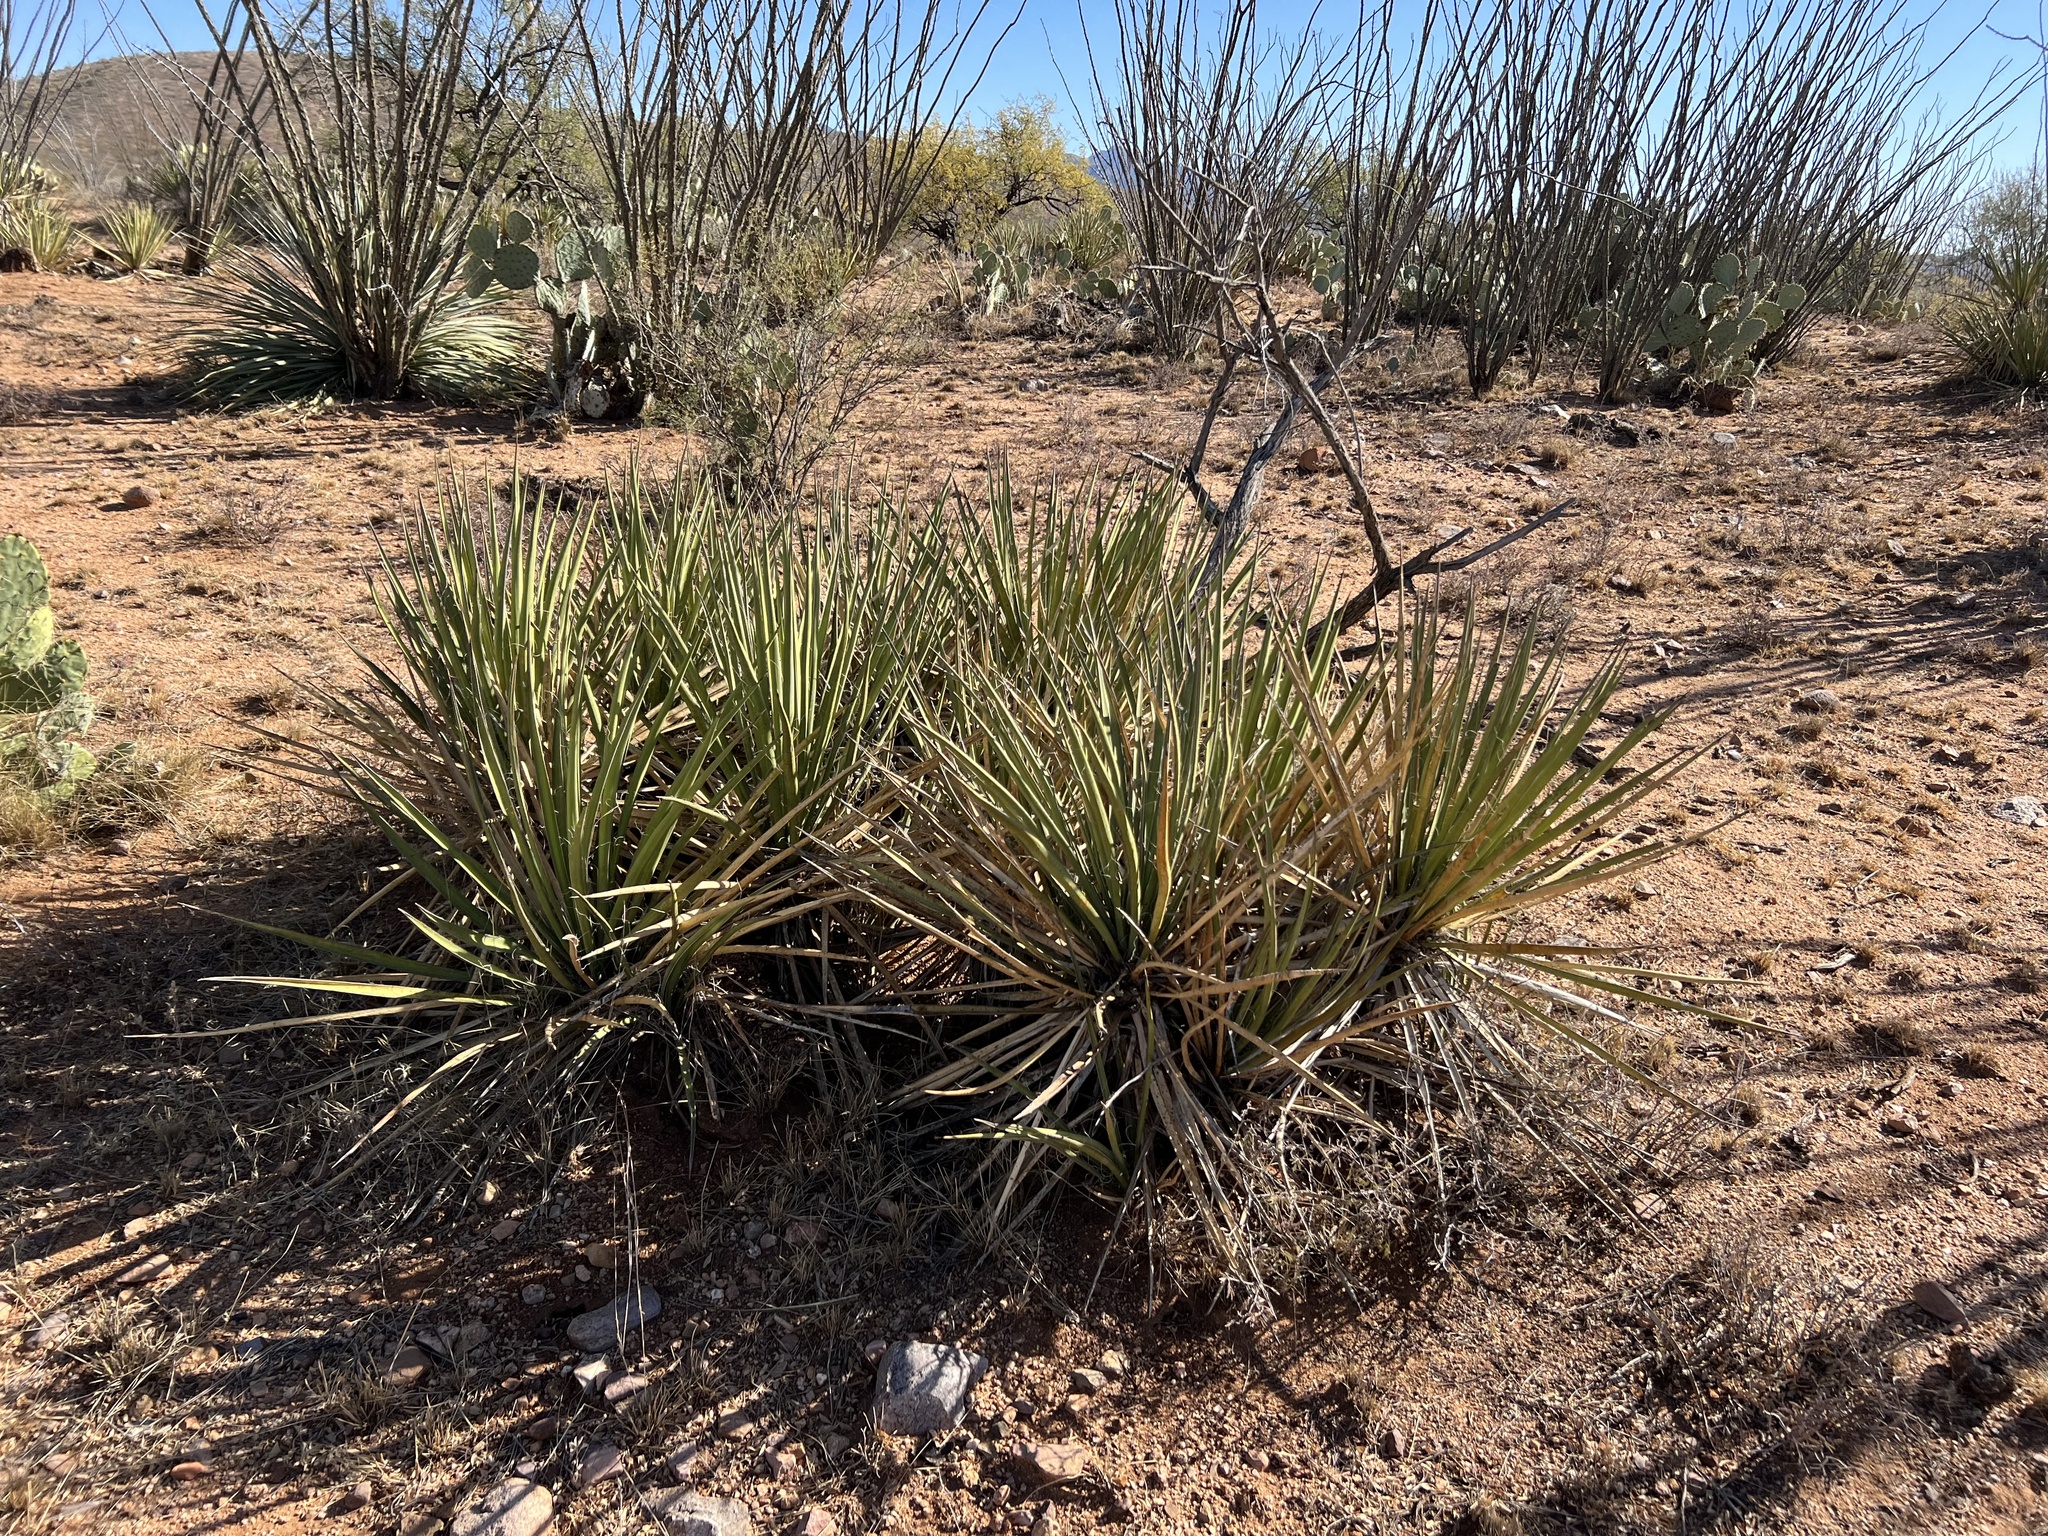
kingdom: Plantae
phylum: Tracheophyta
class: Liliopsida
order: Asparagales
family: Asparagaceae
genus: Yucca
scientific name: Yucca baccata
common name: Banana yucca
